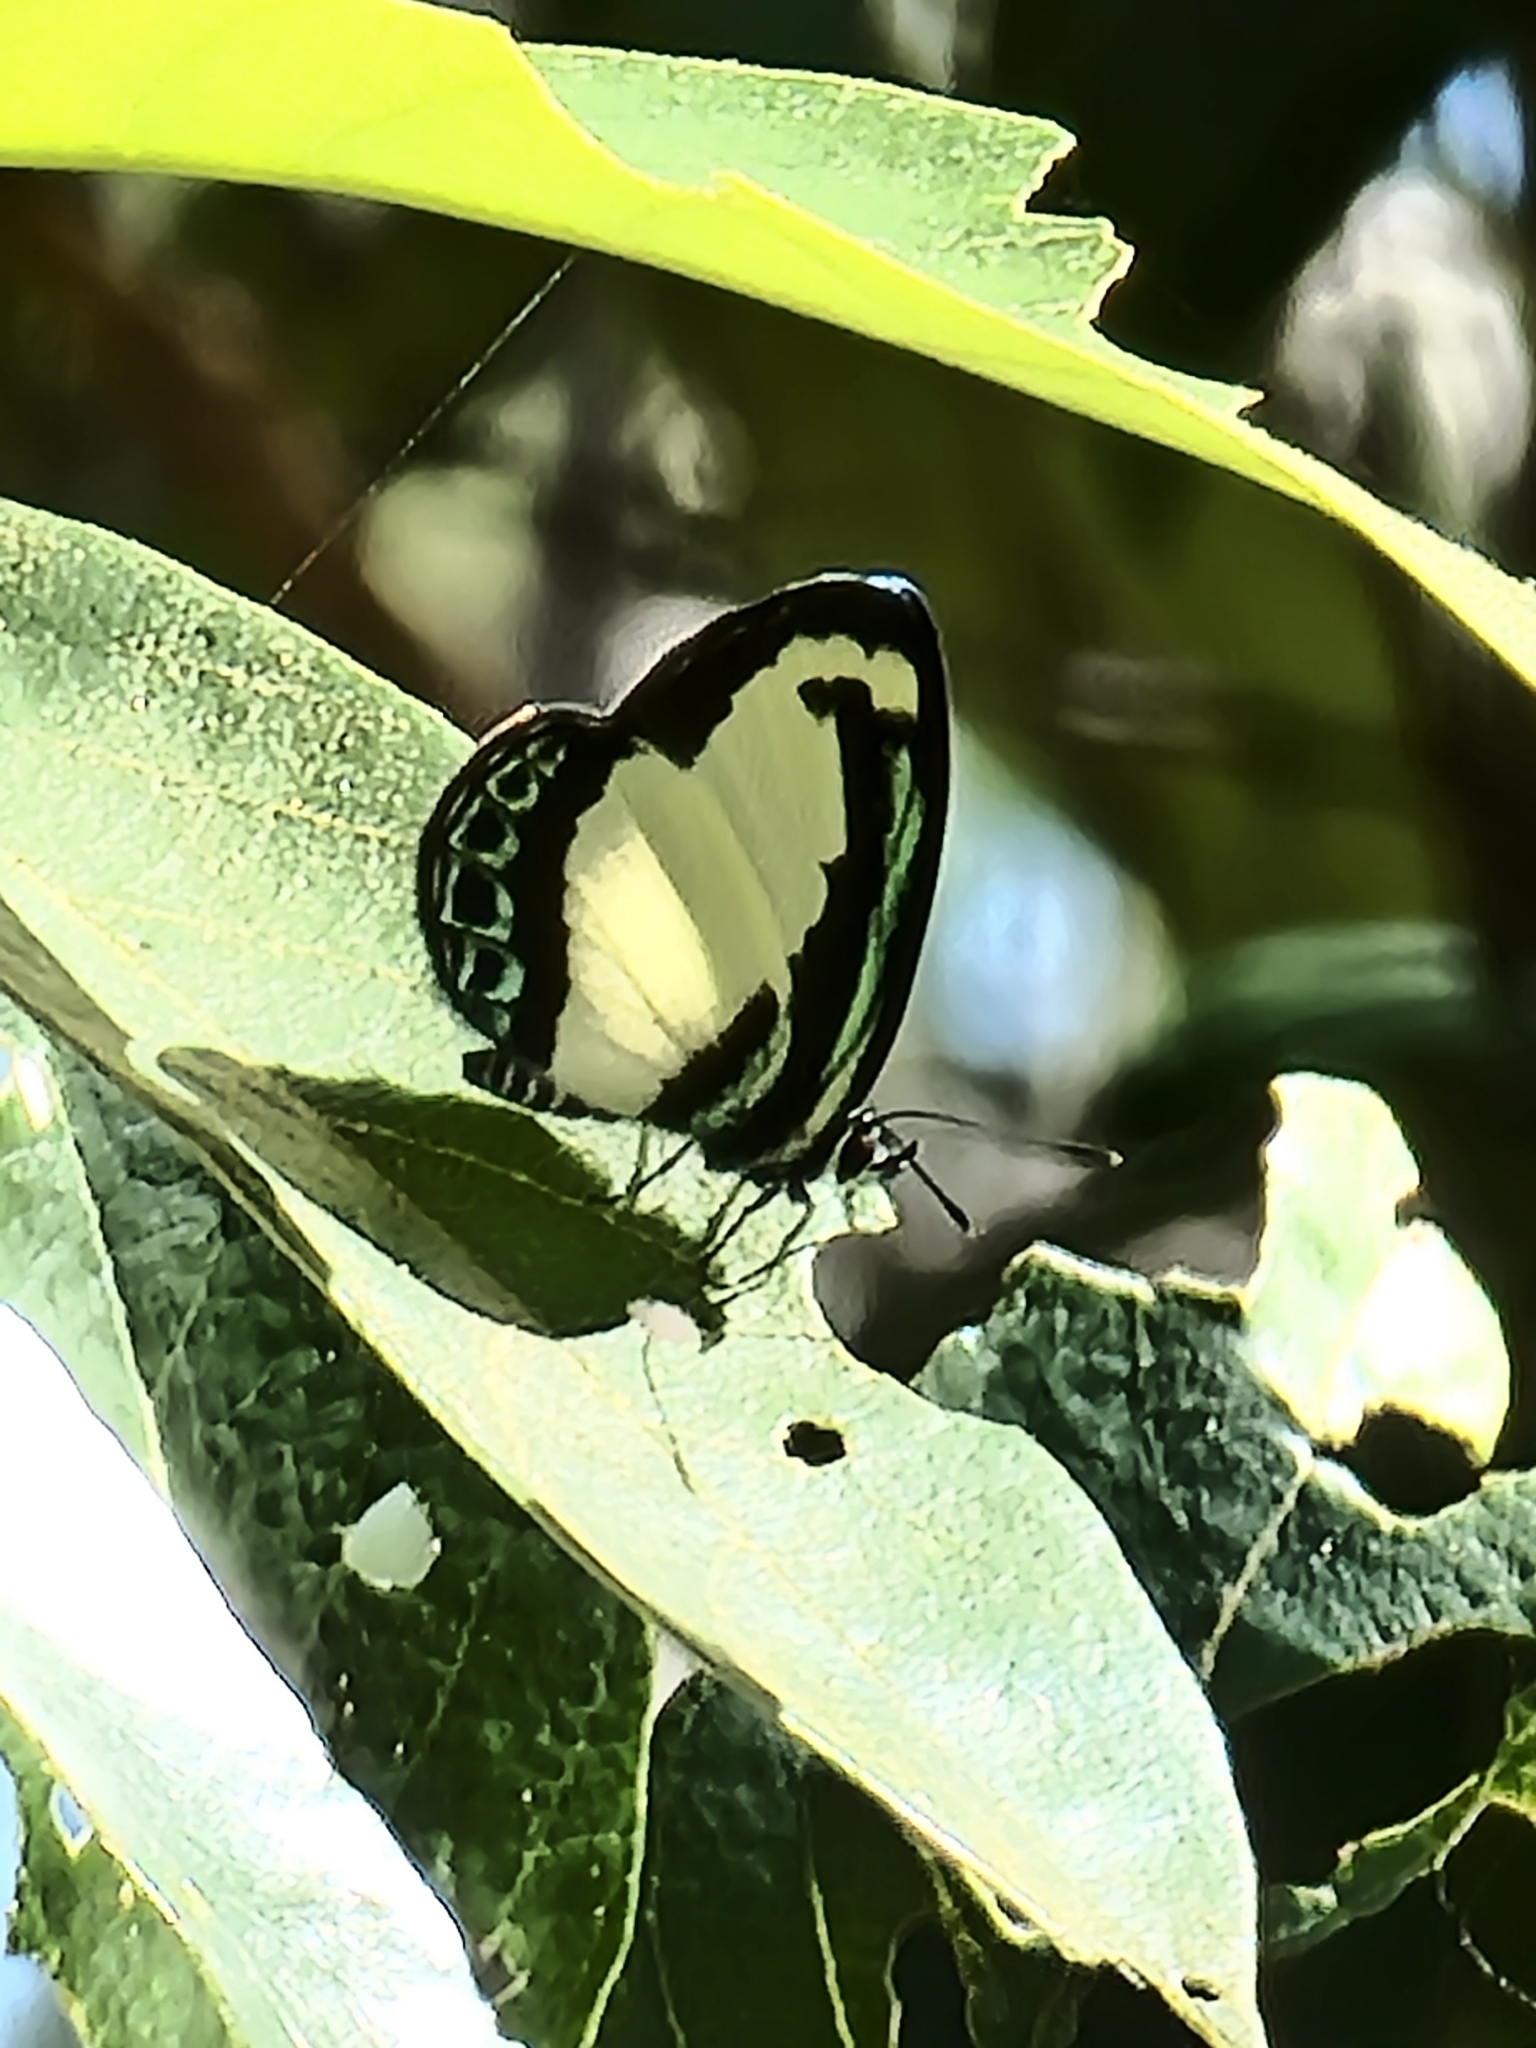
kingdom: Animalia
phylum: Arthropoda
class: Insecta
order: Lepidoptera
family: Lycaenidae
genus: Psychonotis
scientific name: Psychonotis caelius
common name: Small green banded blue
